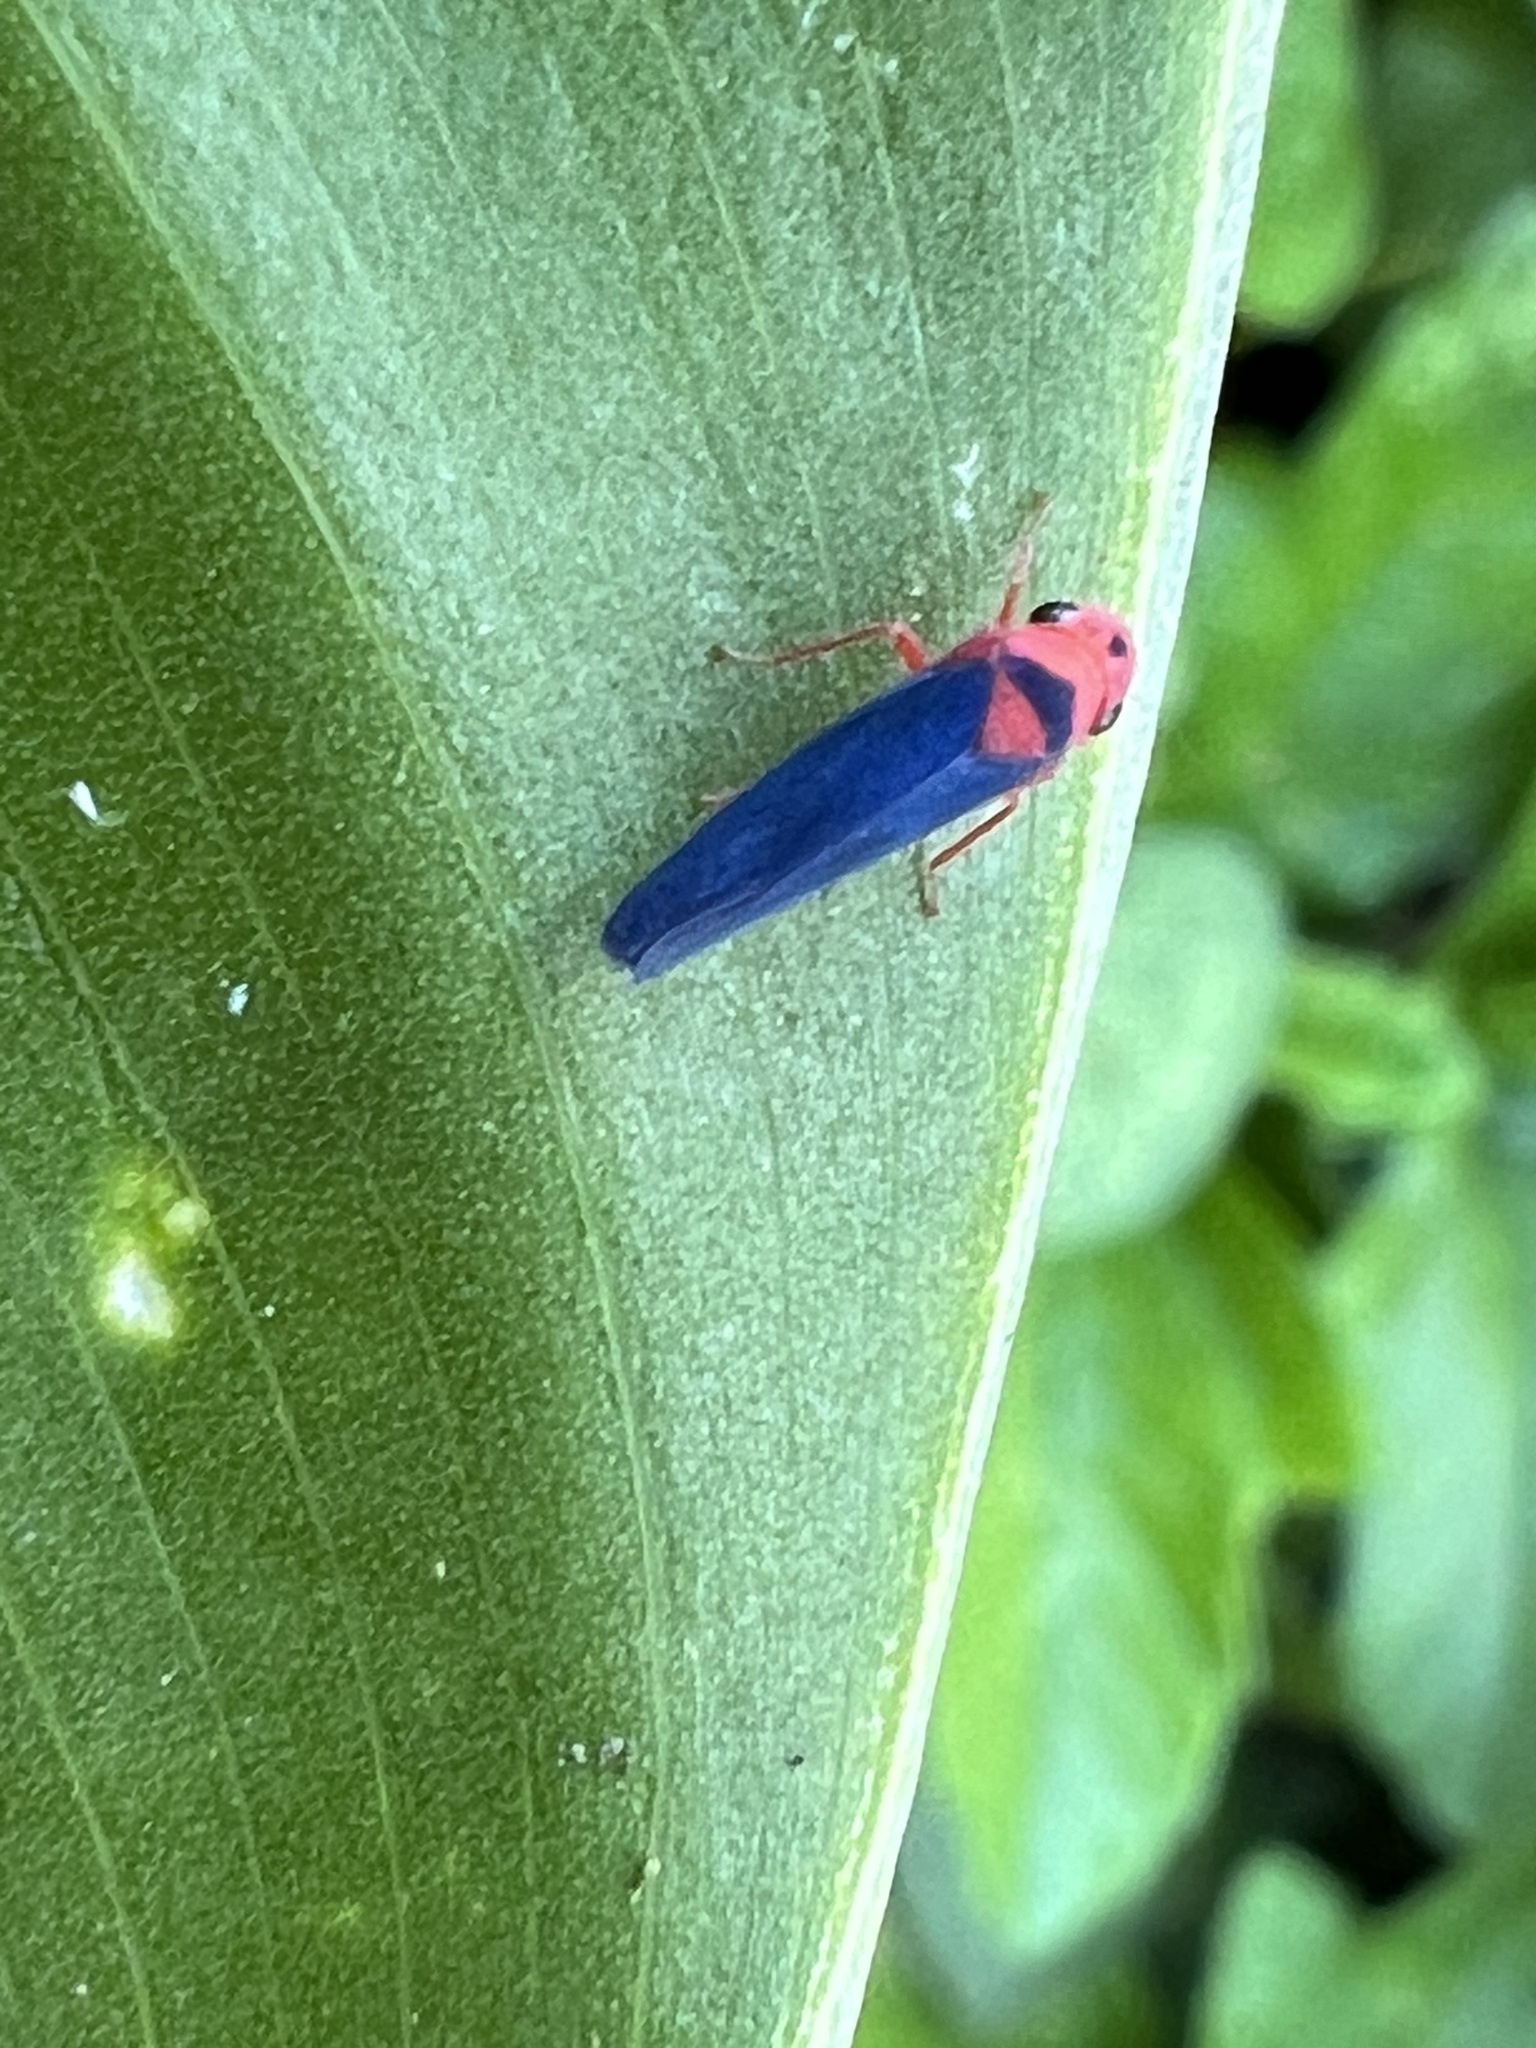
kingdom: Animalia
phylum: Arthropoda
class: Insecta
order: Hemiptera
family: Cicadellidae
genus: Macunolla
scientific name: Macunolla ventralis
